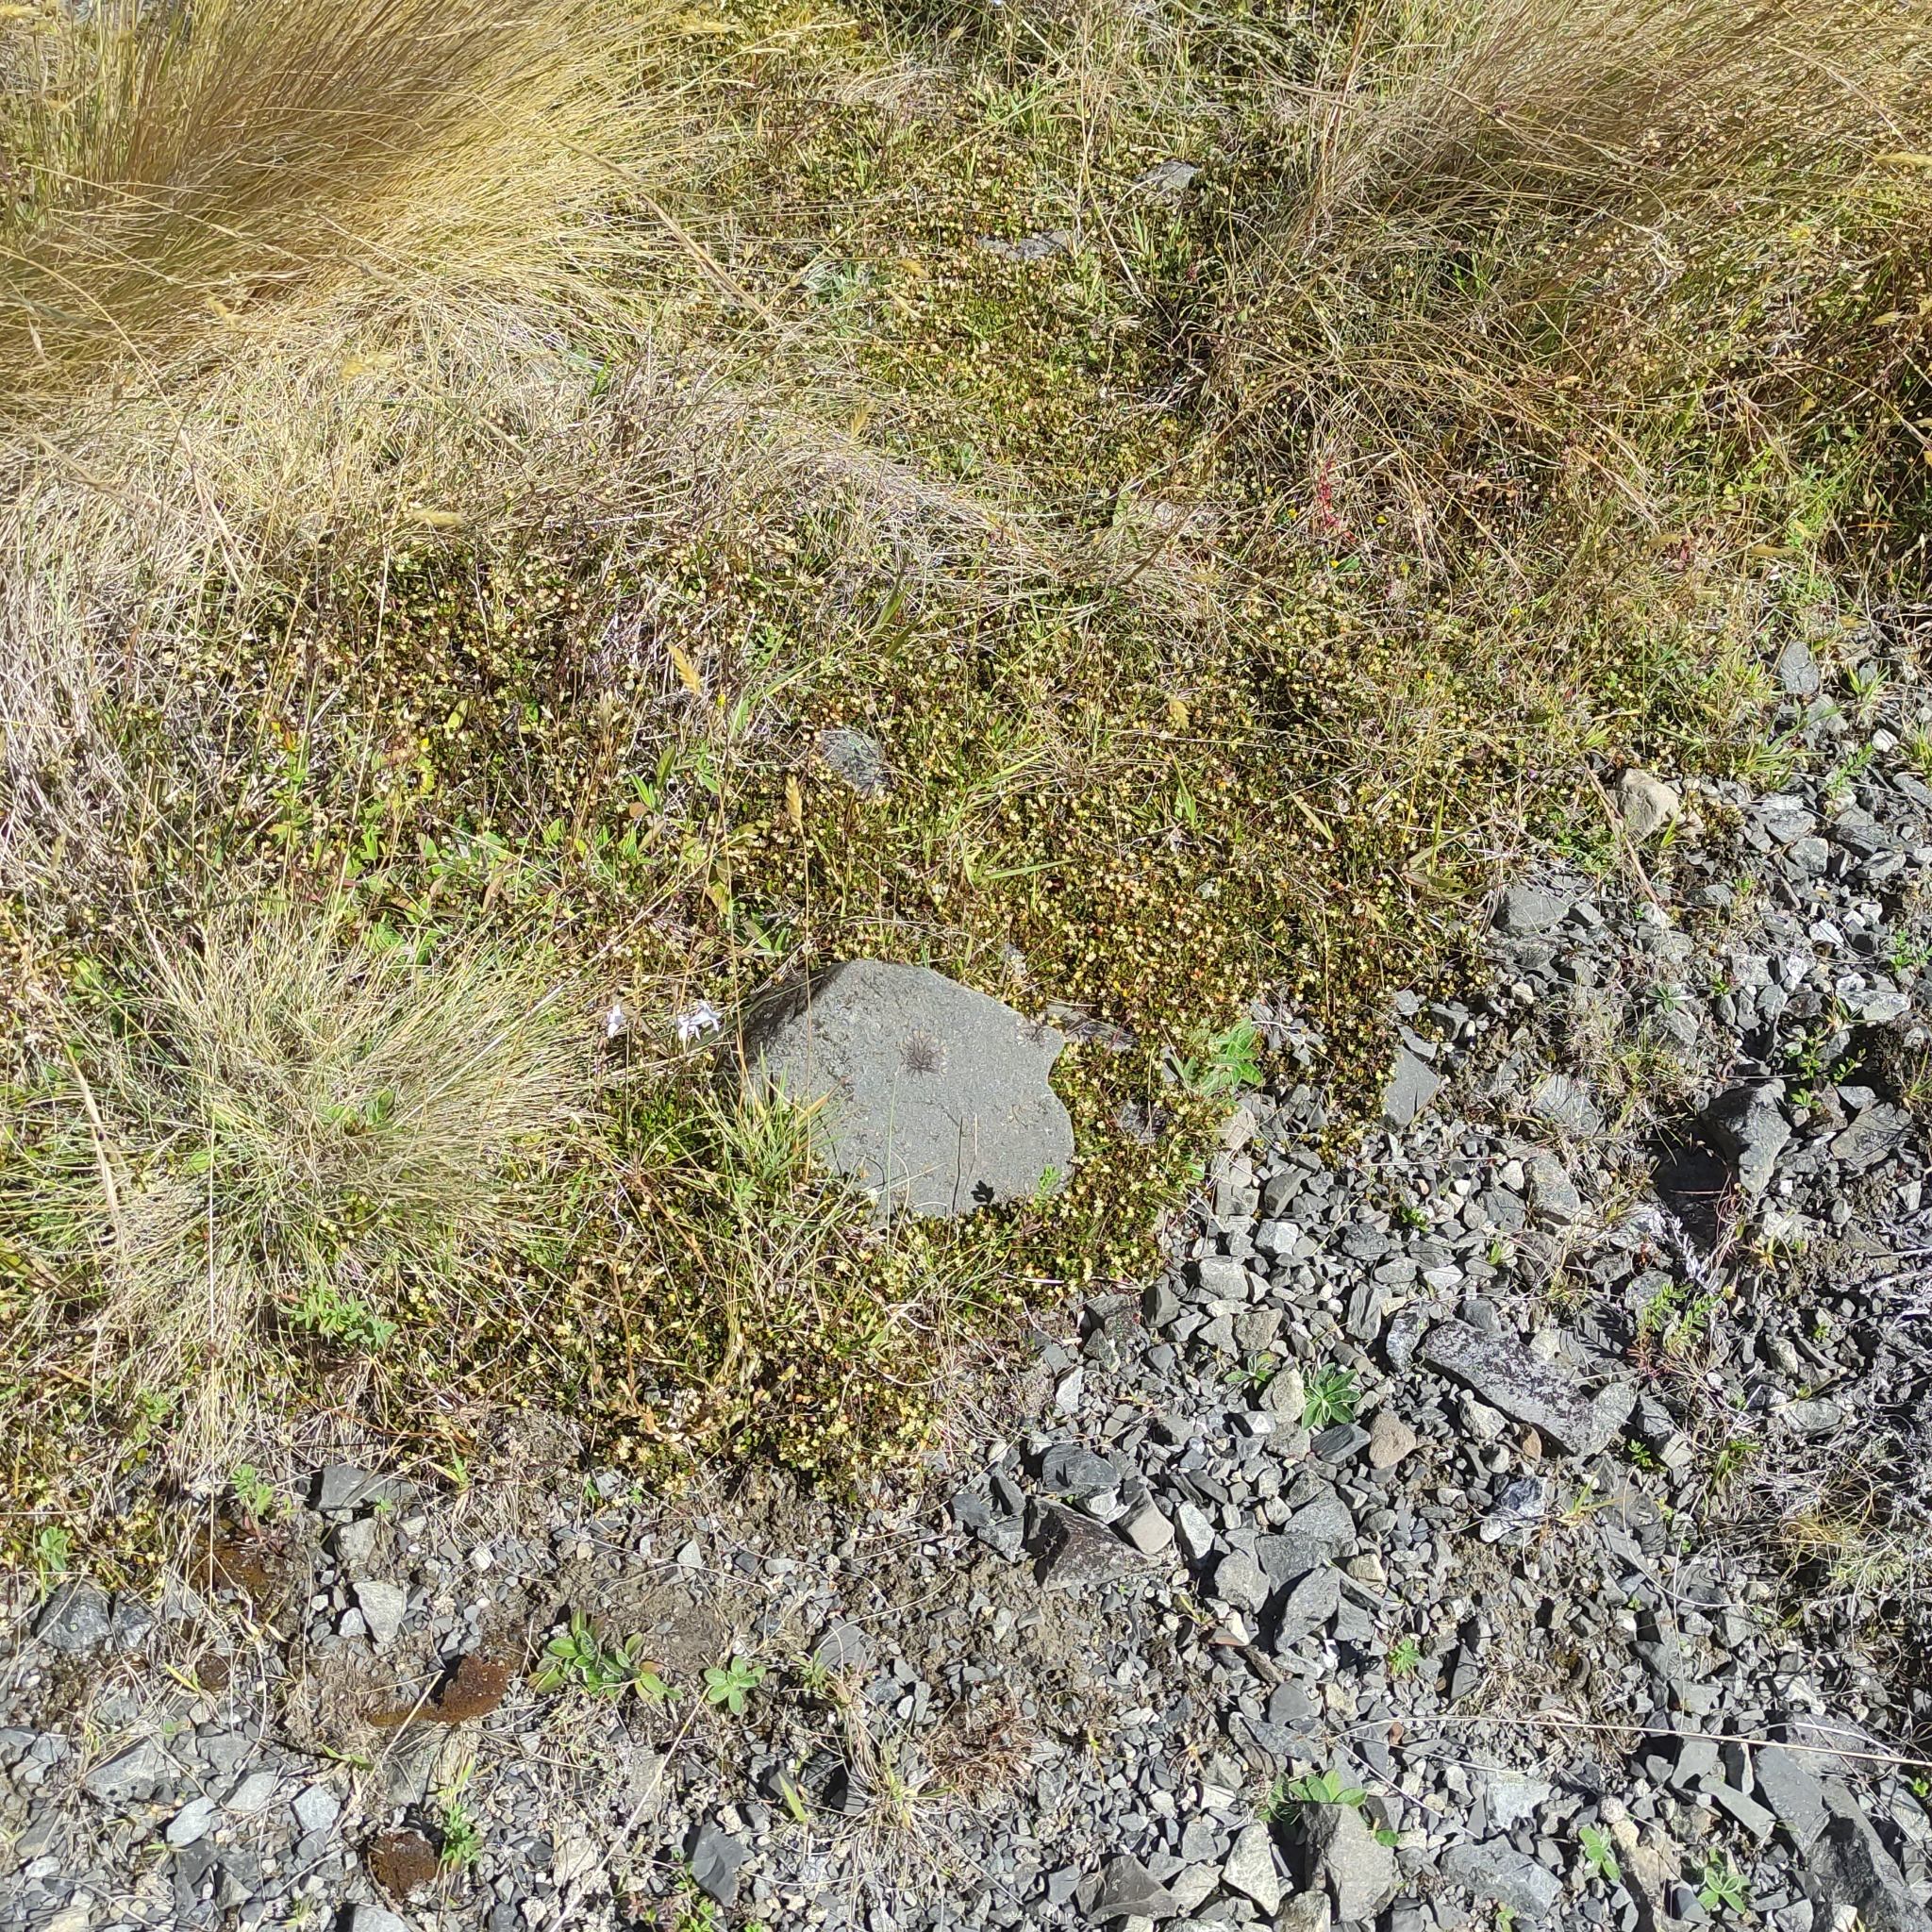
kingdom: Plantae
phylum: Tracheophyta
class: Magnoliopsida
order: Caryophyllales
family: Polygonaceae
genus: Muehlenbeckia
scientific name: Muehlenbeckia axillaris
